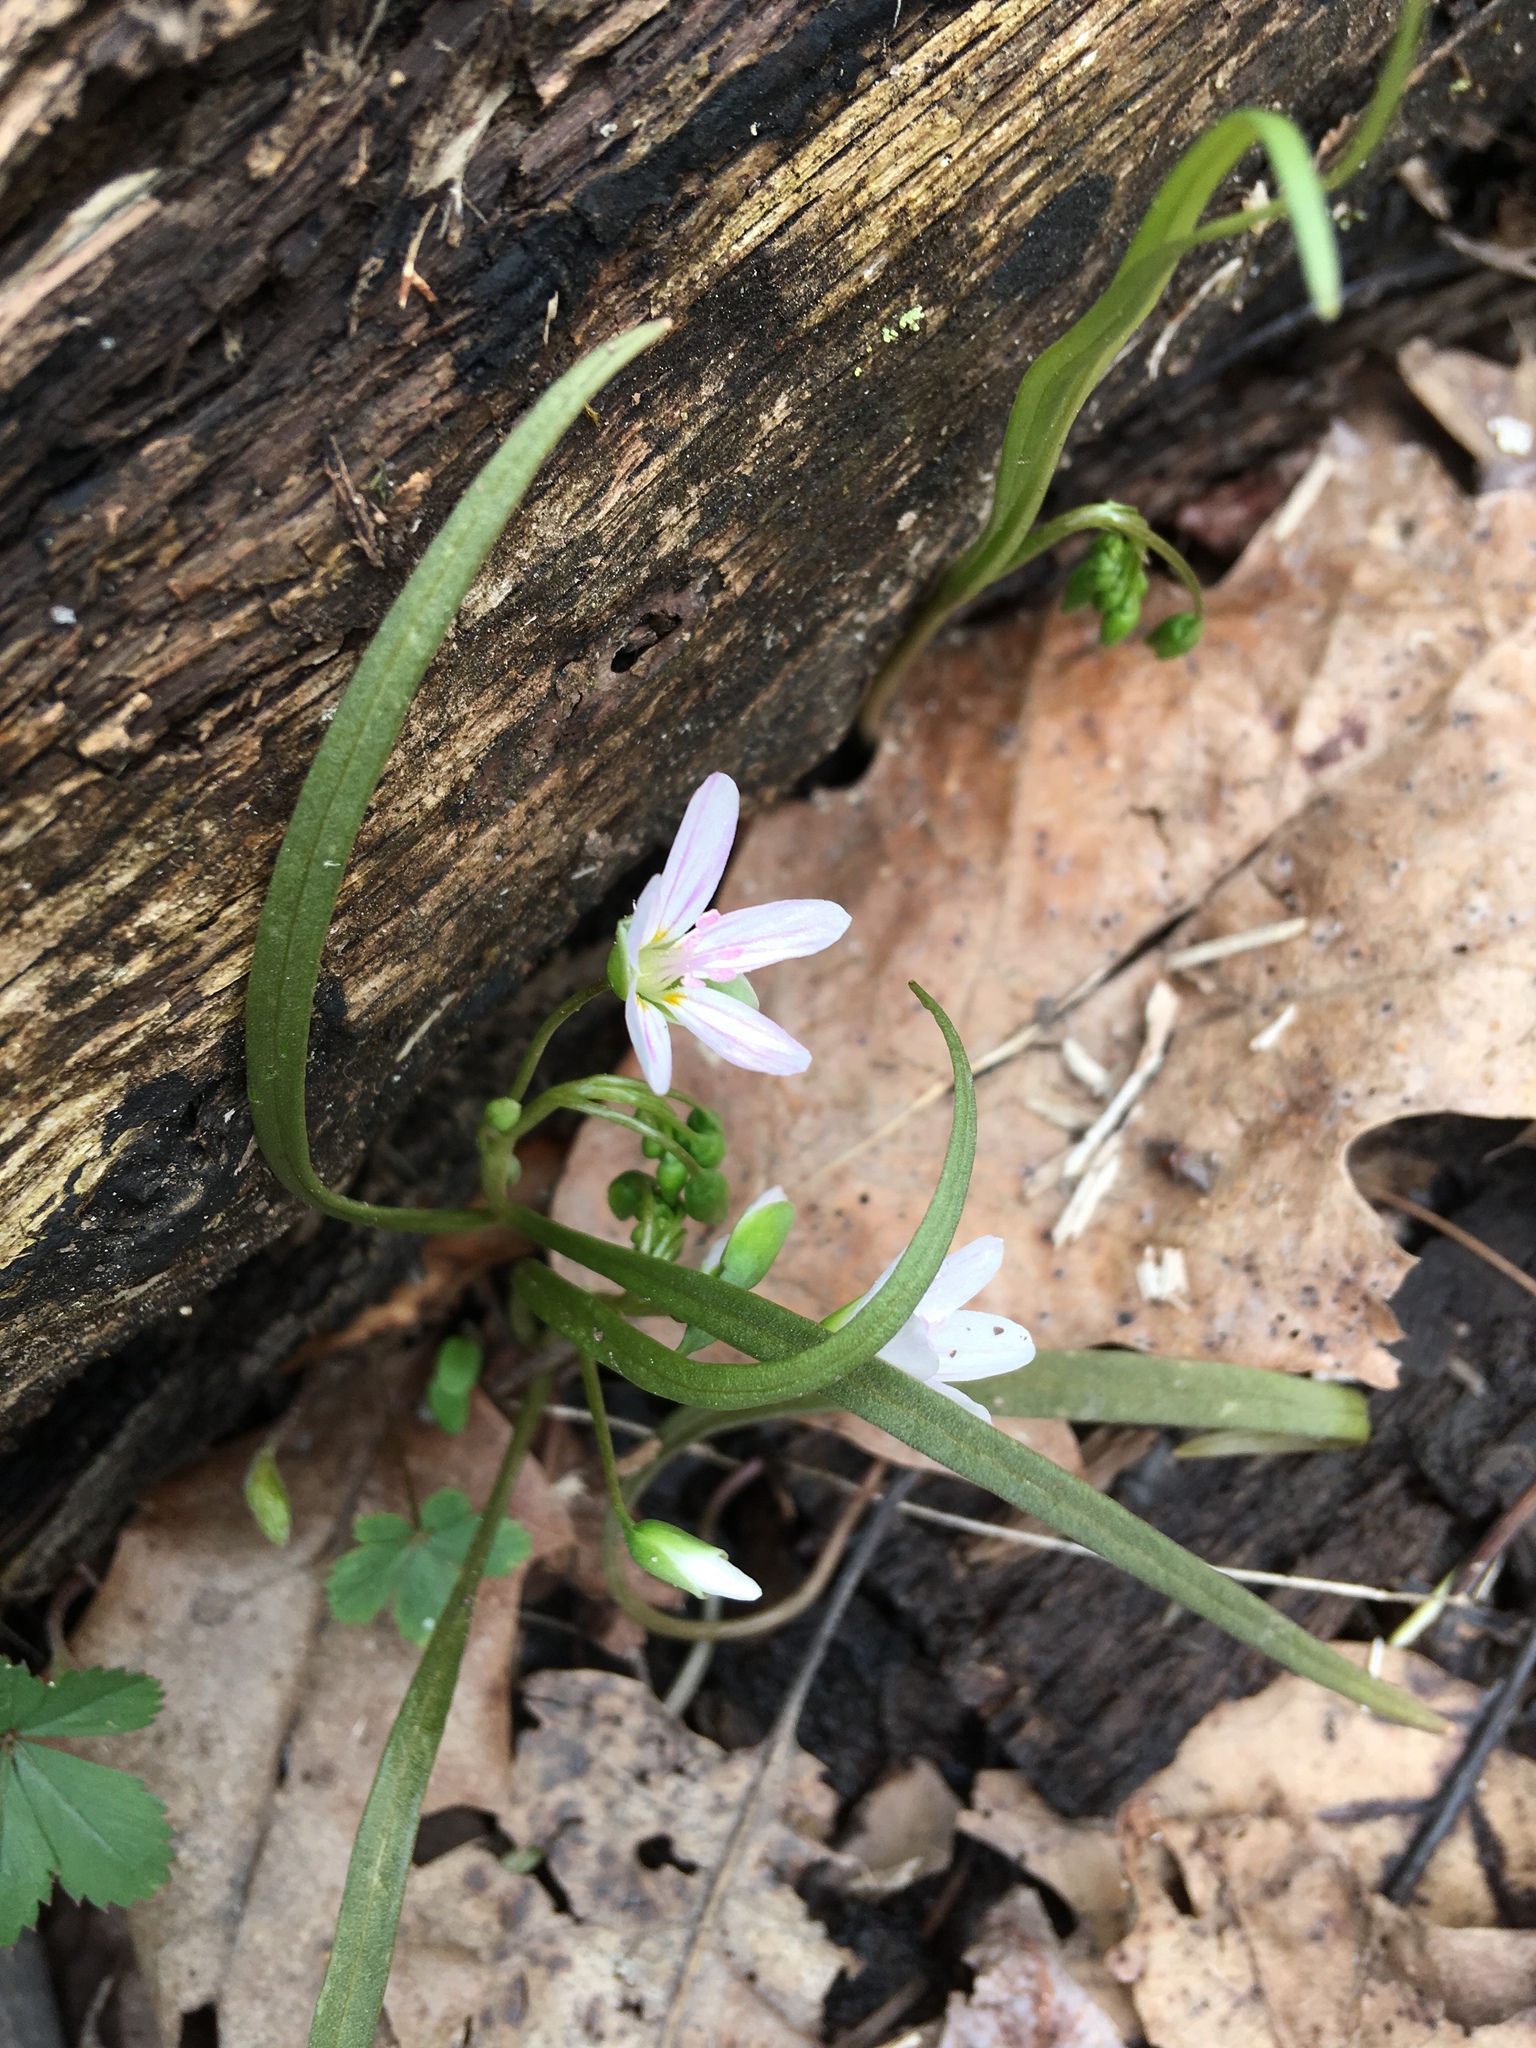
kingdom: Plantae
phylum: Tracheophyta
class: Magnoliopsida
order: Caryophyllales
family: Montiaceae
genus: Claytonia
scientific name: Claytonia virginica
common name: Virginia springbeauty
